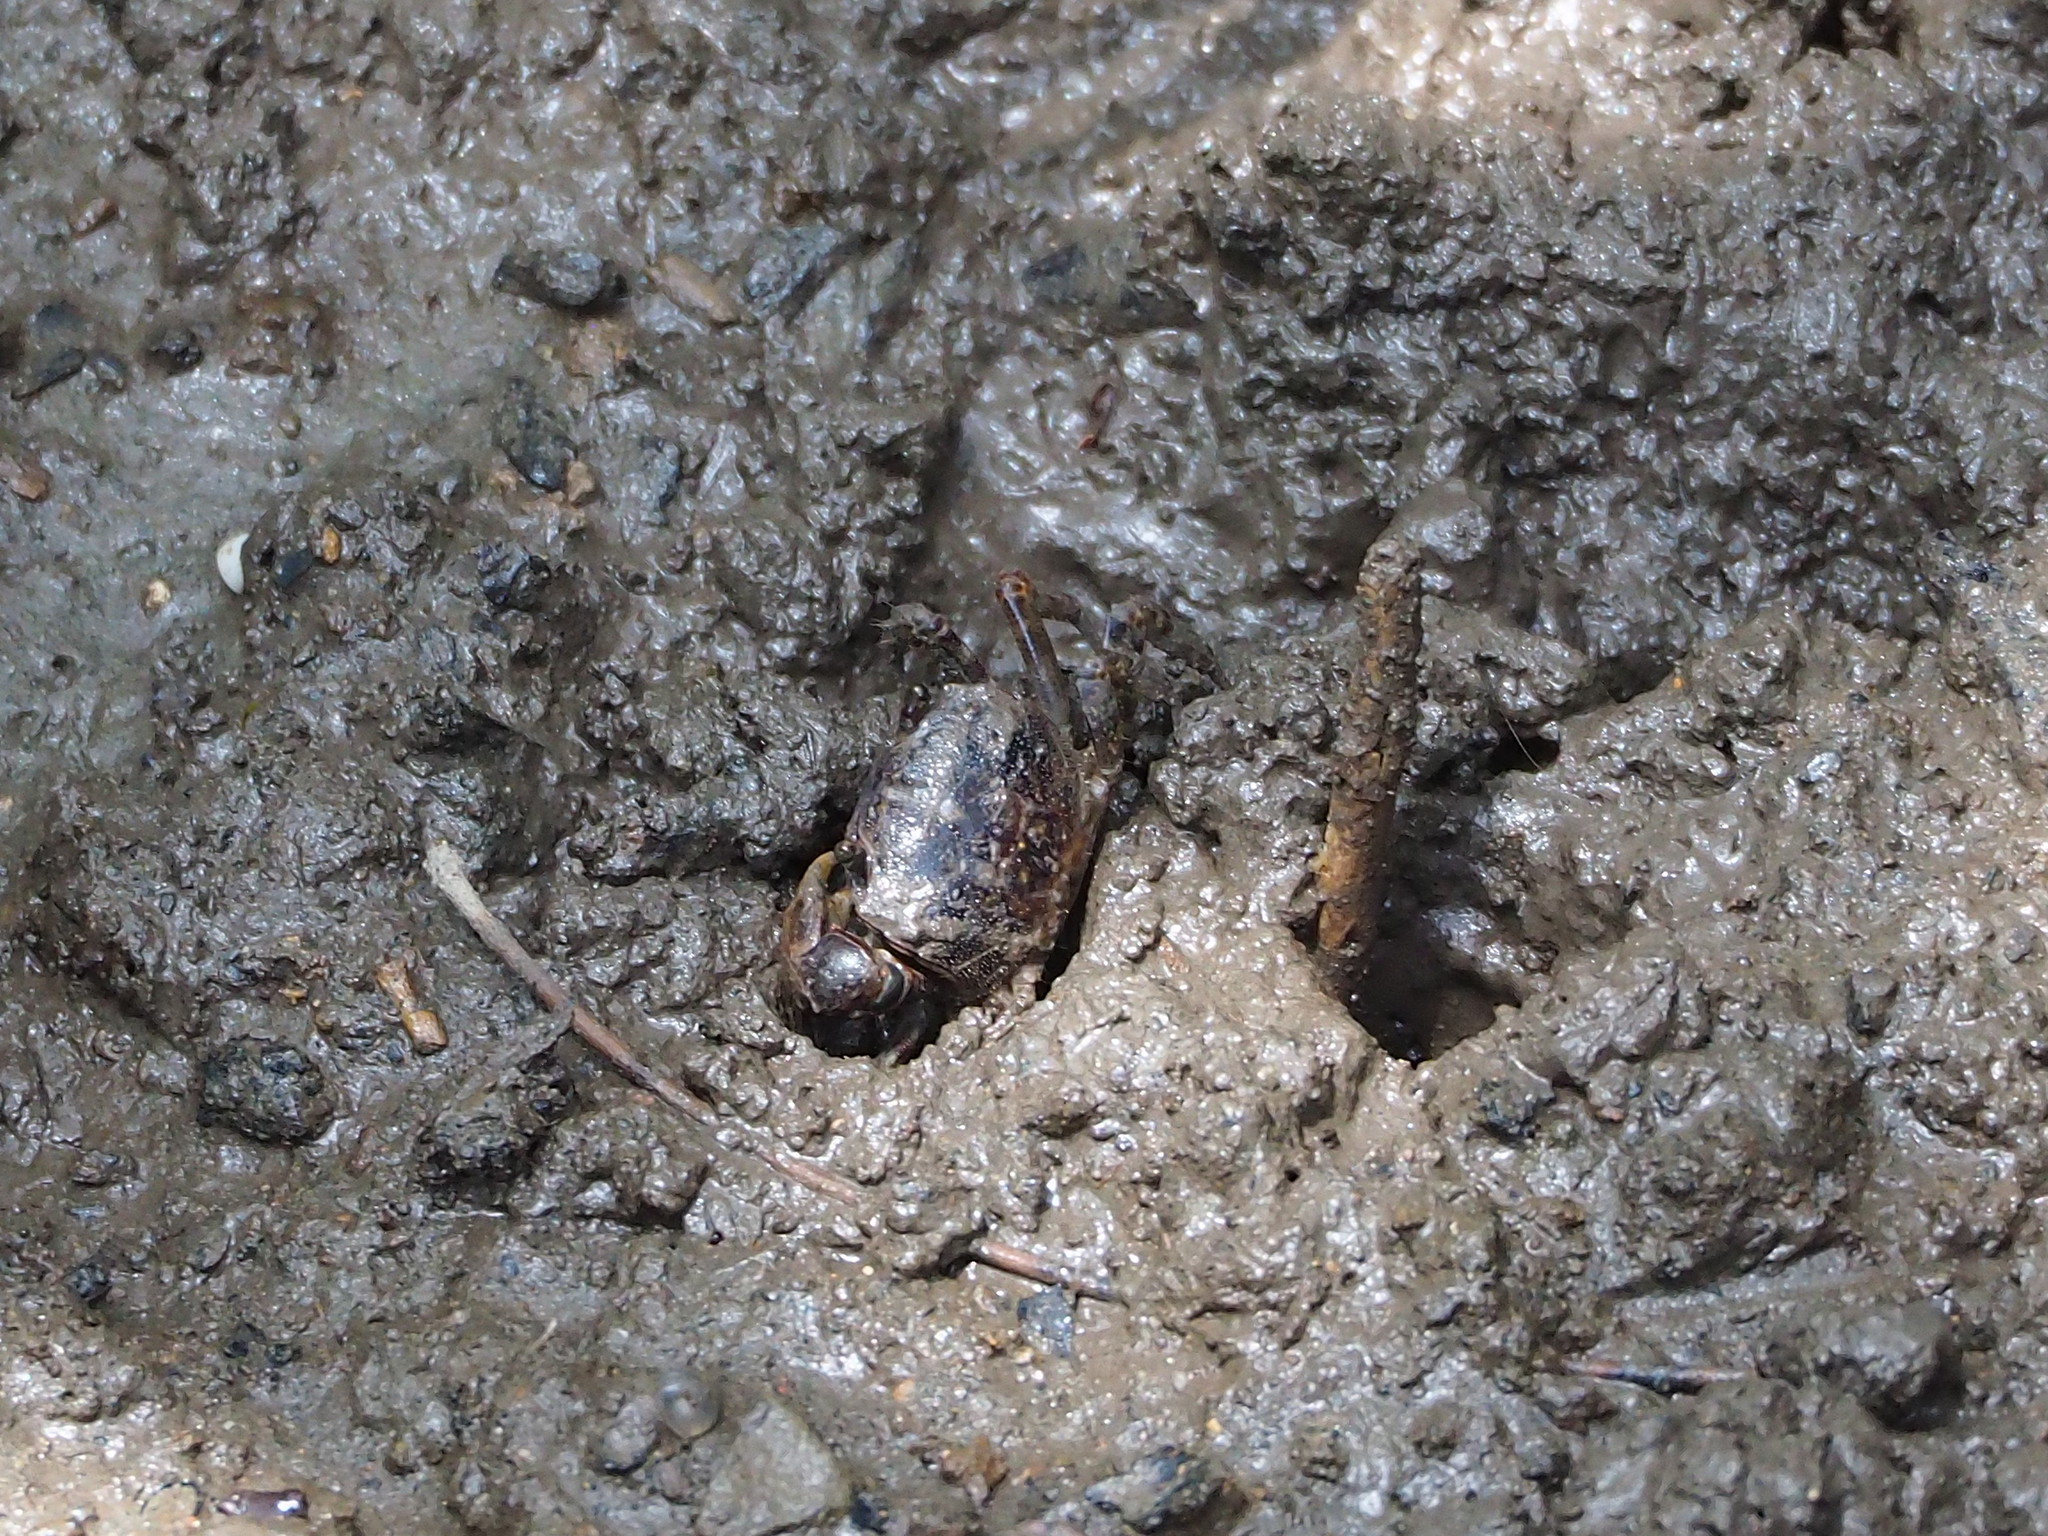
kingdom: Animalia
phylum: Arthropoda
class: Malacostraca
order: Decapoda
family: Varunidae
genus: Pseudohelice
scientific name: Pseudohelice subquadrata
